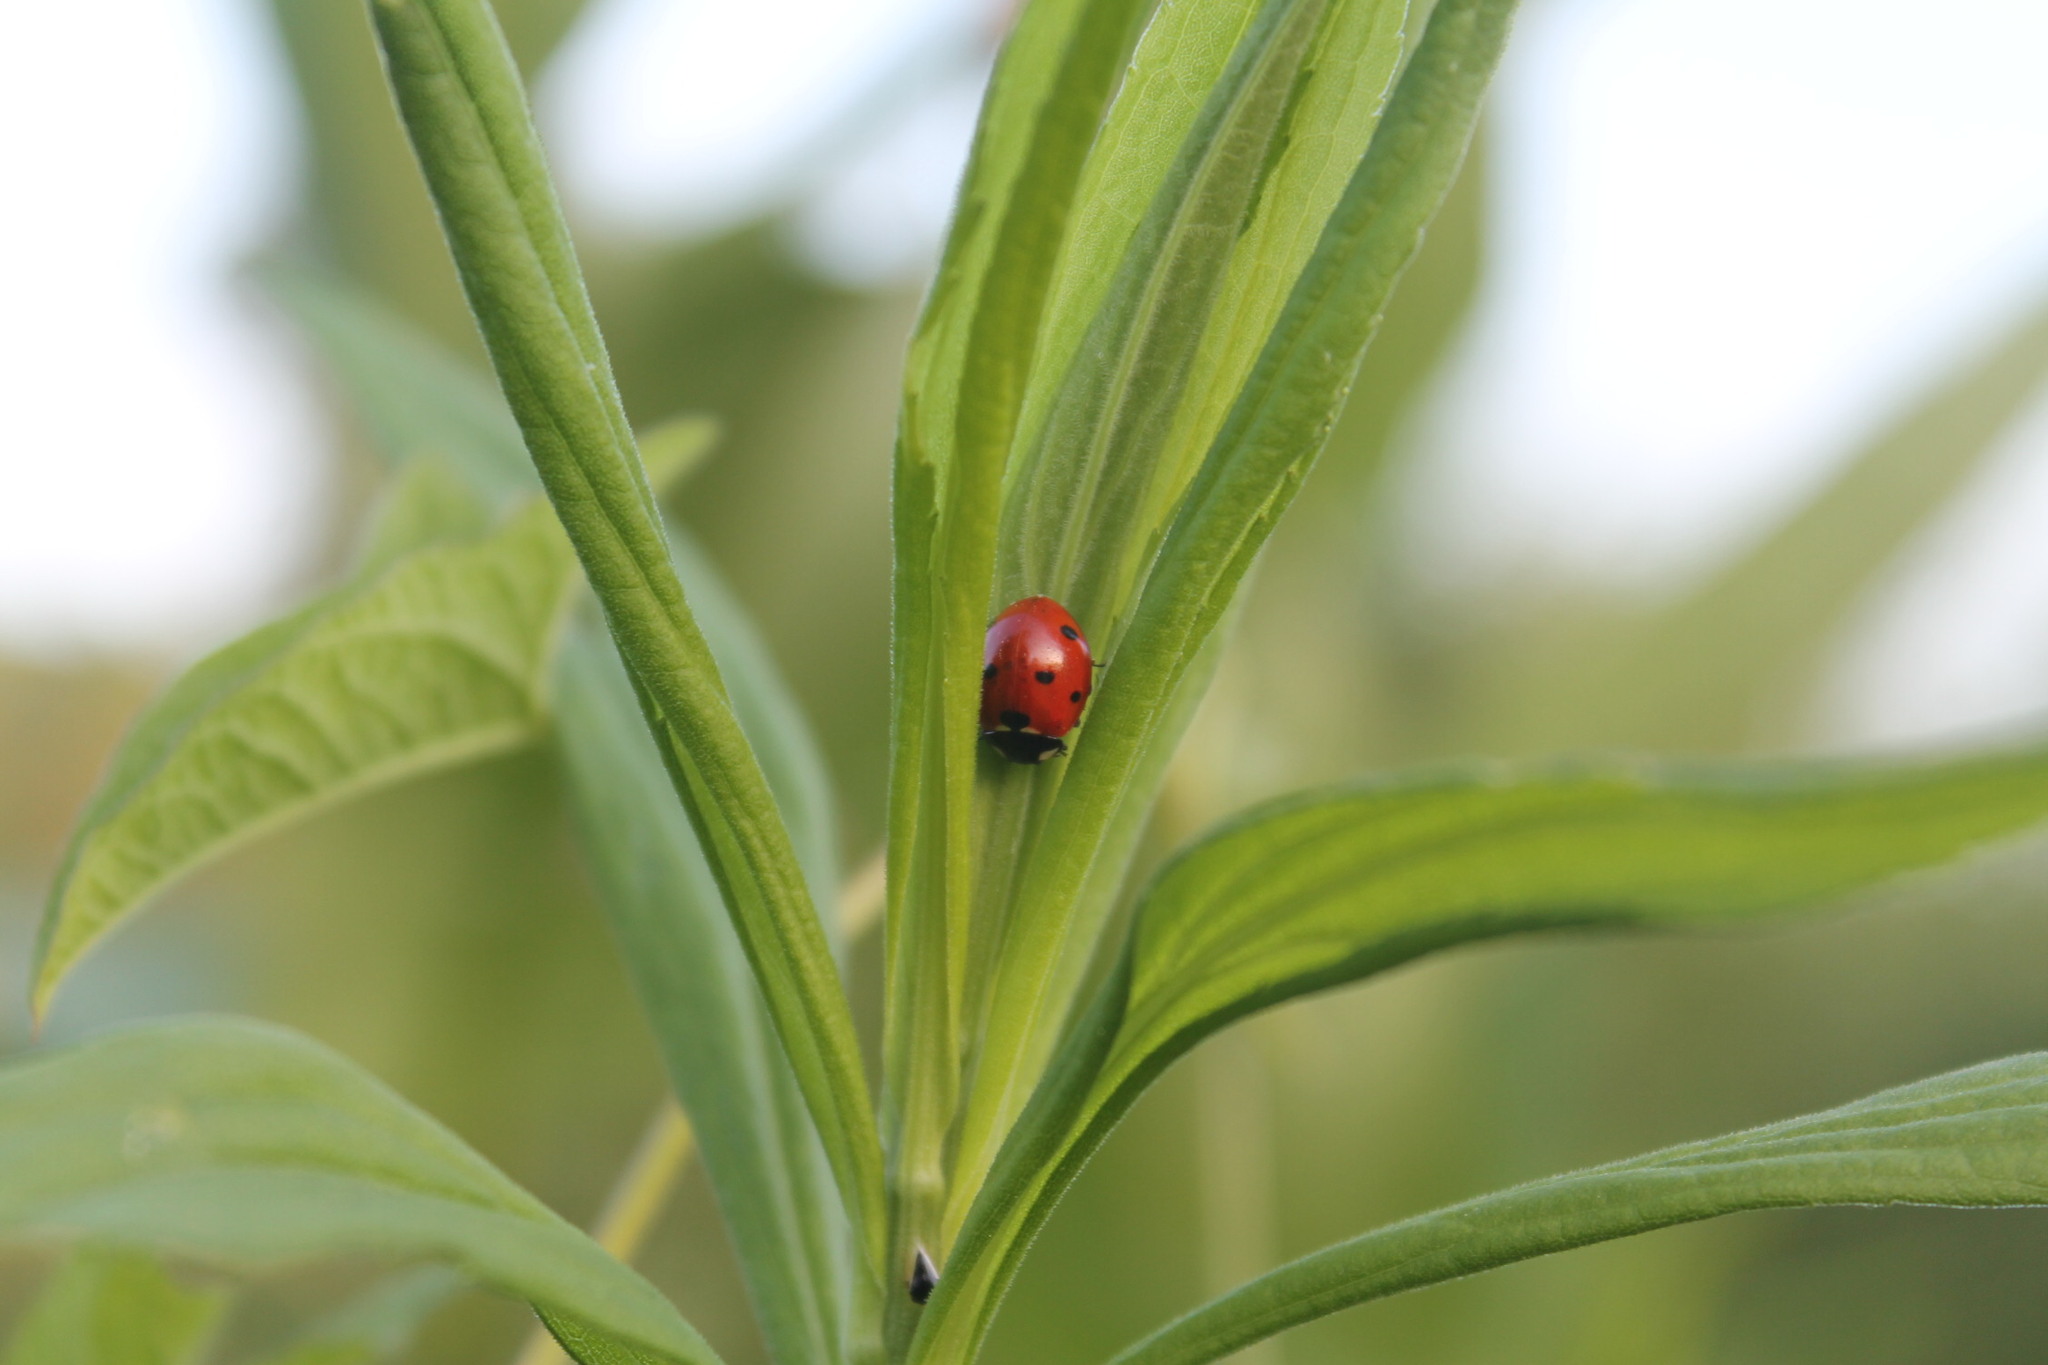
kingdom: Animalia
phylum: Arthropoda
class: Insecta
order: Coleoptera
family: Coccinellidae
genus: Coccinella
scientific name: Coccinella septempunctata
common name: Sevenspotted lady beetle
